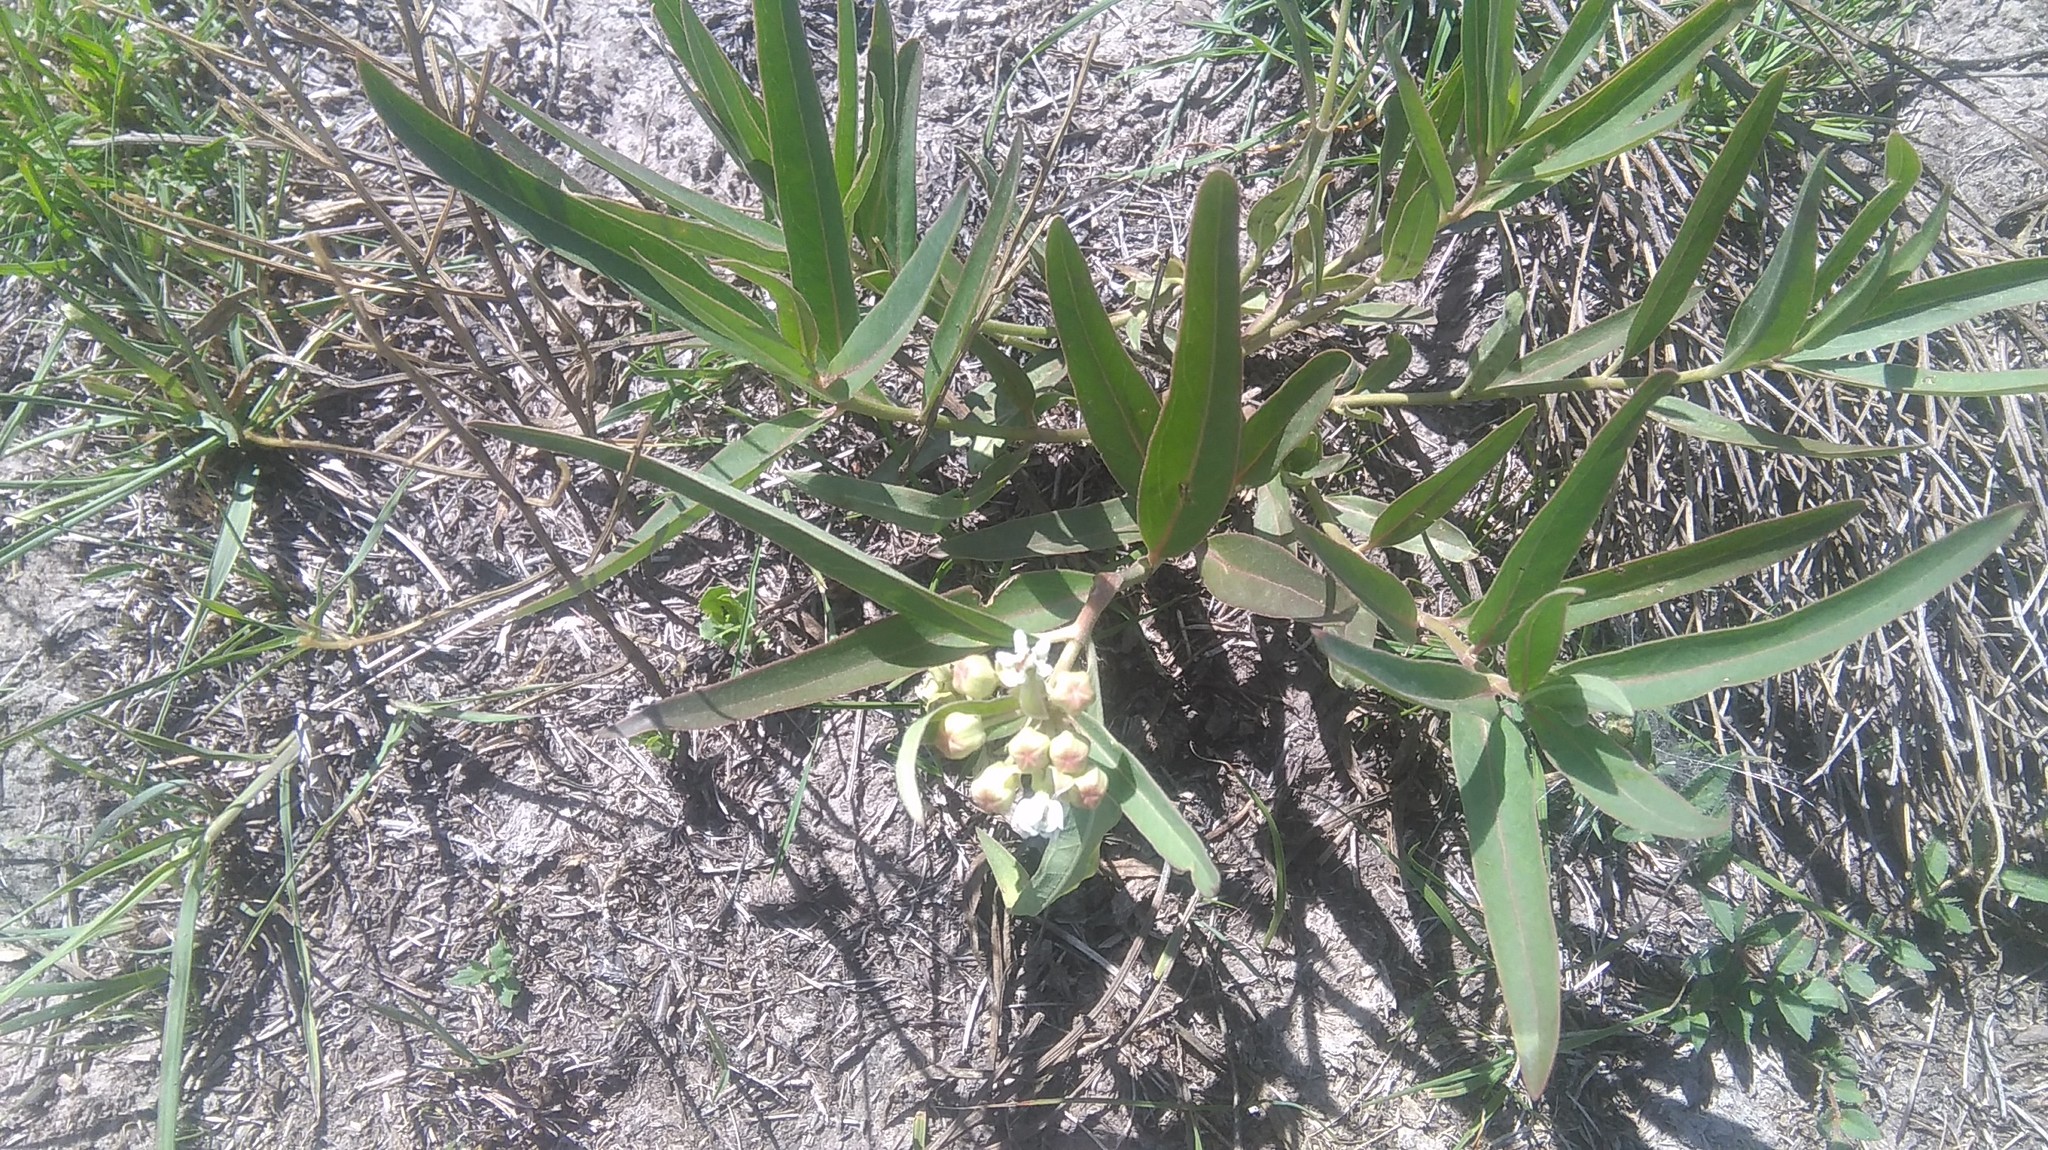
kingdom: Plantae
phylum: Tracheophyta
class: Magnoliopsida
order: Gentianales
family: Apocynaceae
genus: Asclepias
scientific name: Asclepias mellodora
